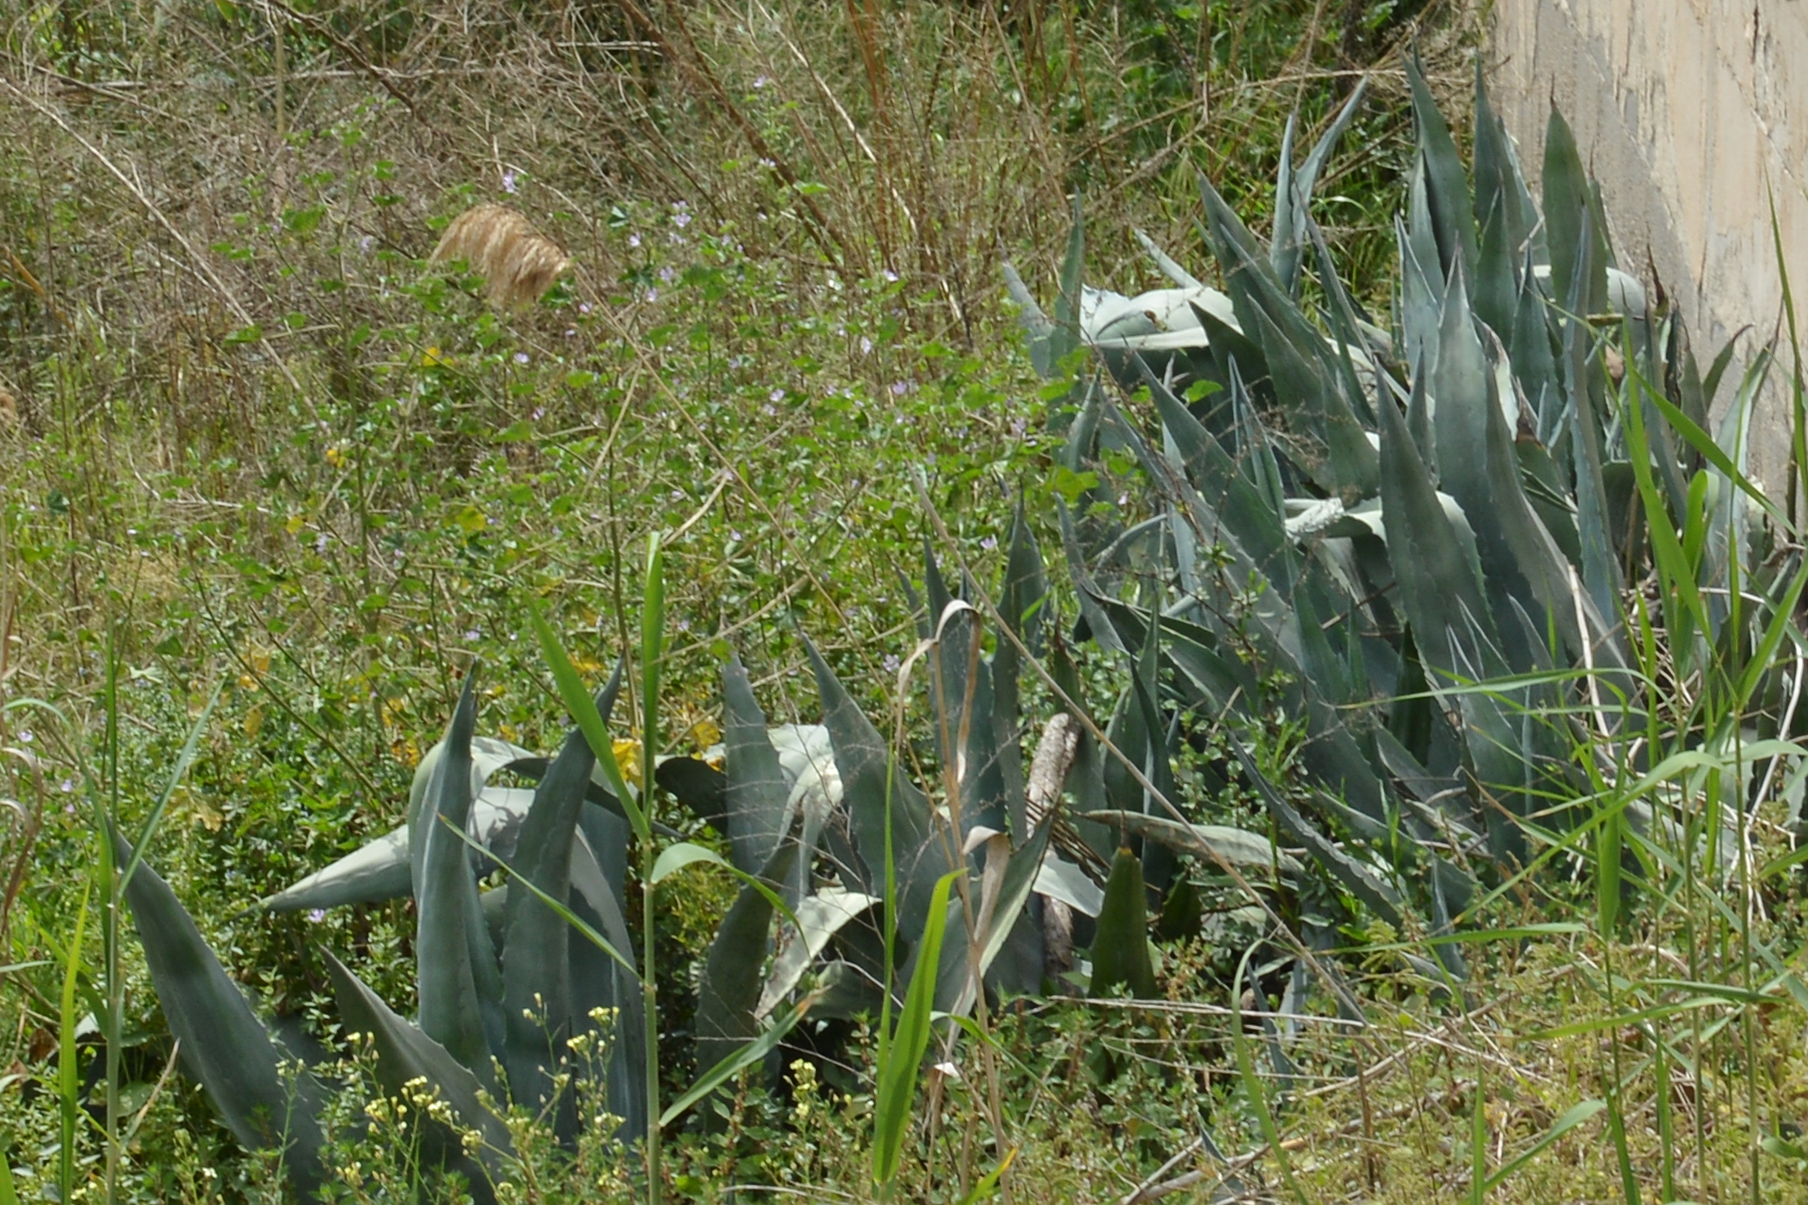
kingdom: Plantae
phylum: Tracheophyta
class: Liliopsida
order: Asparagales
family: Asparagaceae
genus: Agave
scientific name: Agave americana
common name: Centuryplant
